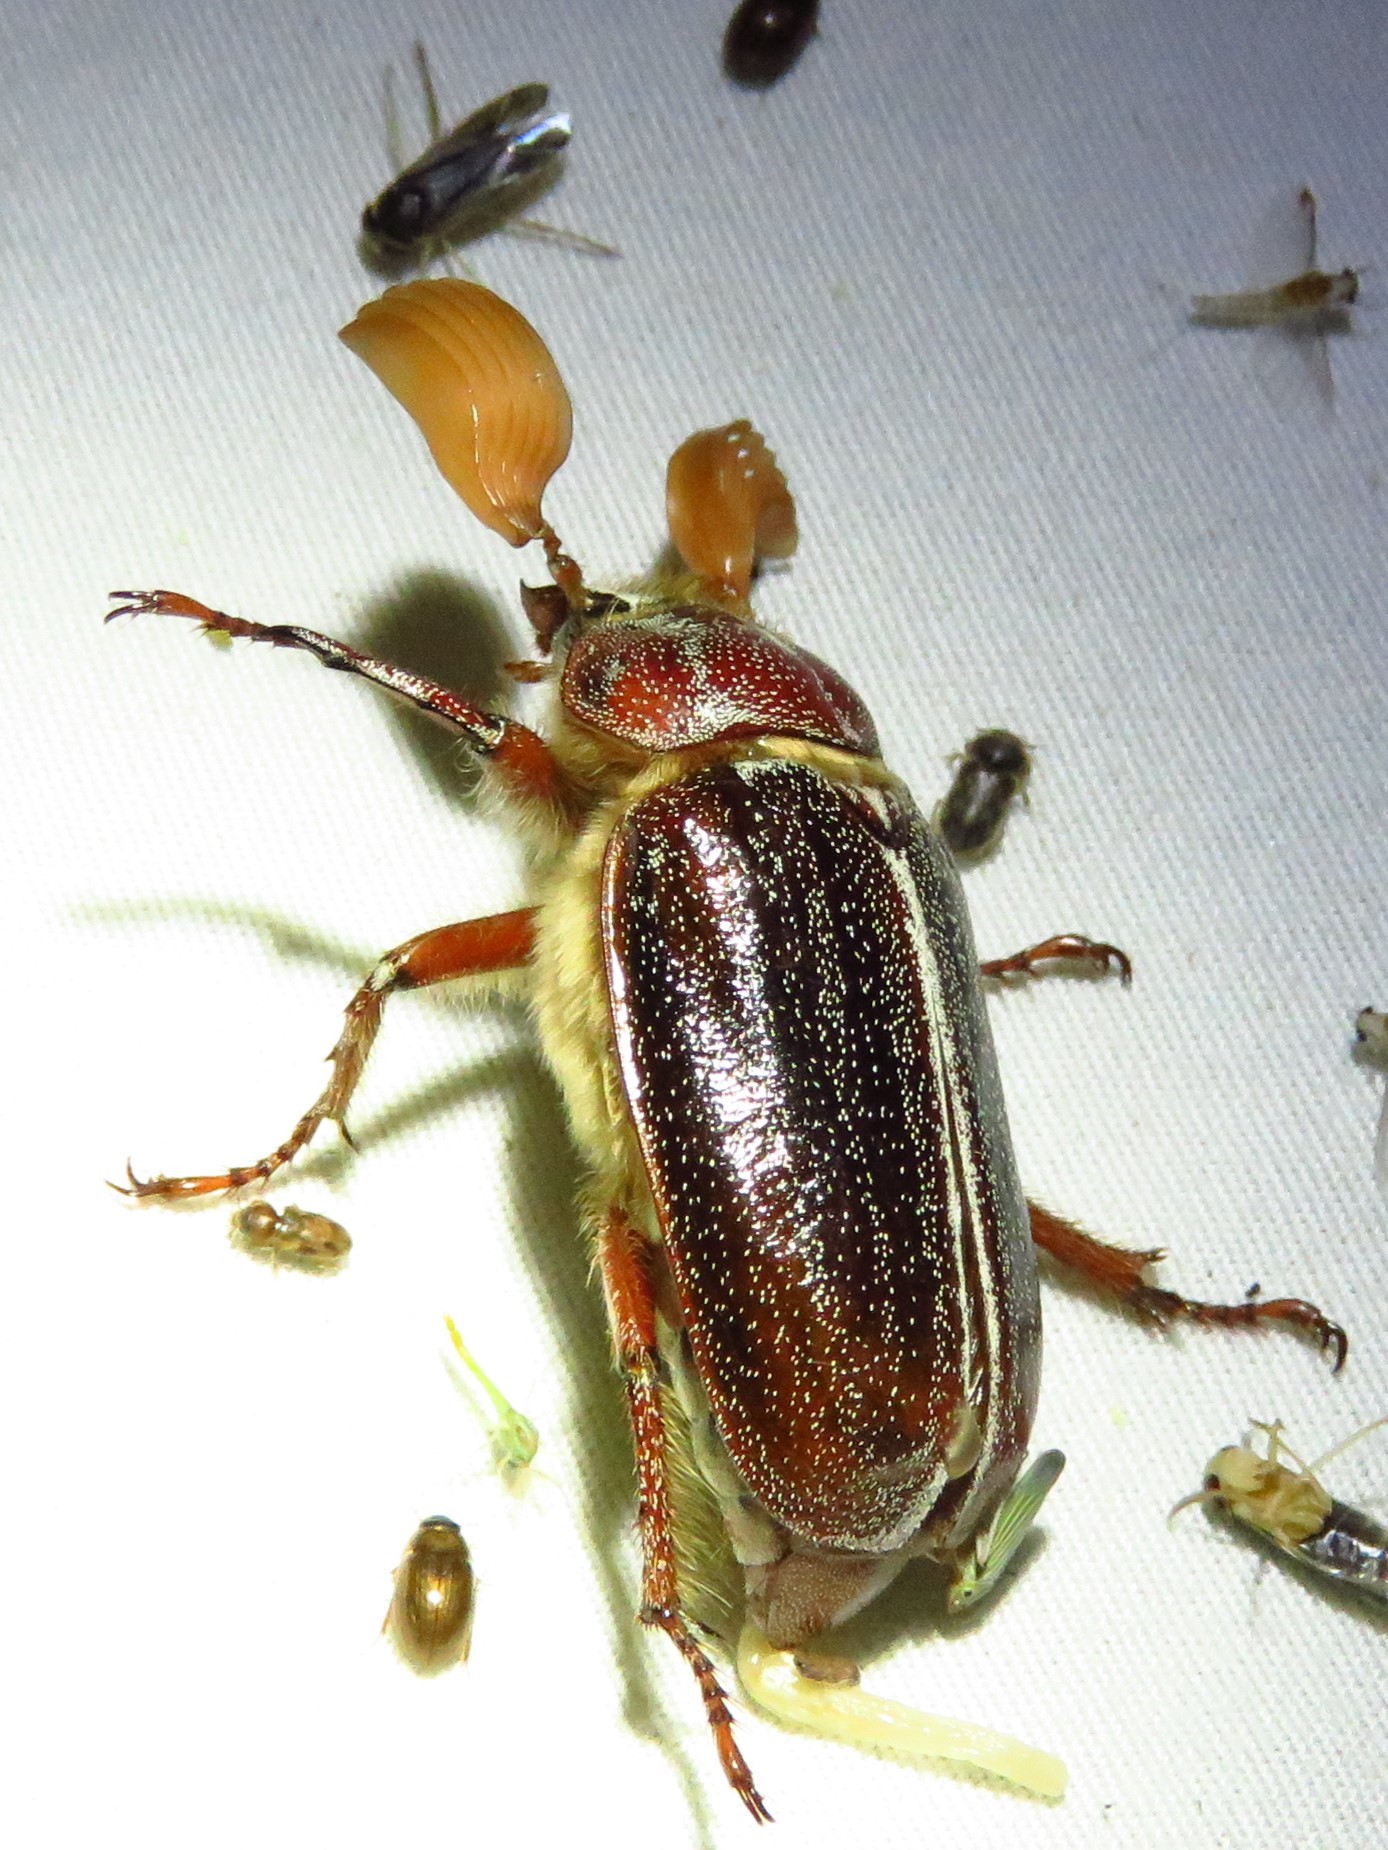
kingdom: Animalia
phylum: Arthropoda
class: Insecta
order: Coleoptera
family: Scarabaeidae
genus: Polyphylla
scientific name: Polyphylla hammondi
